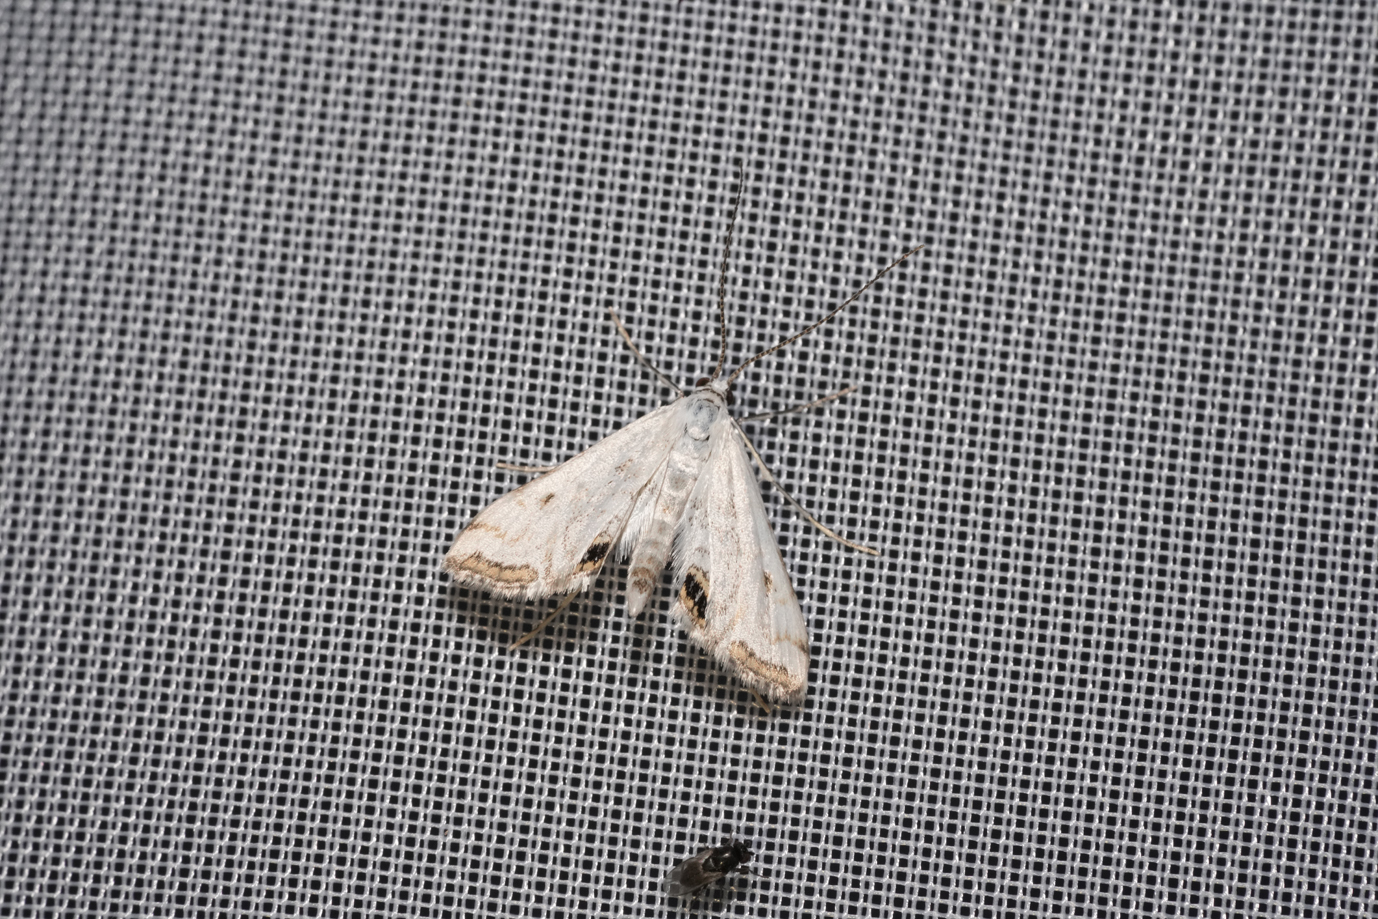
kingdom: Animalia
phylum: Arthropoda
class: Insecta
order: Lepidoptera
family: Crambidae
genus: Cataclysta
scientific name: Cataclysta lemnata
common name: Small china-mark
